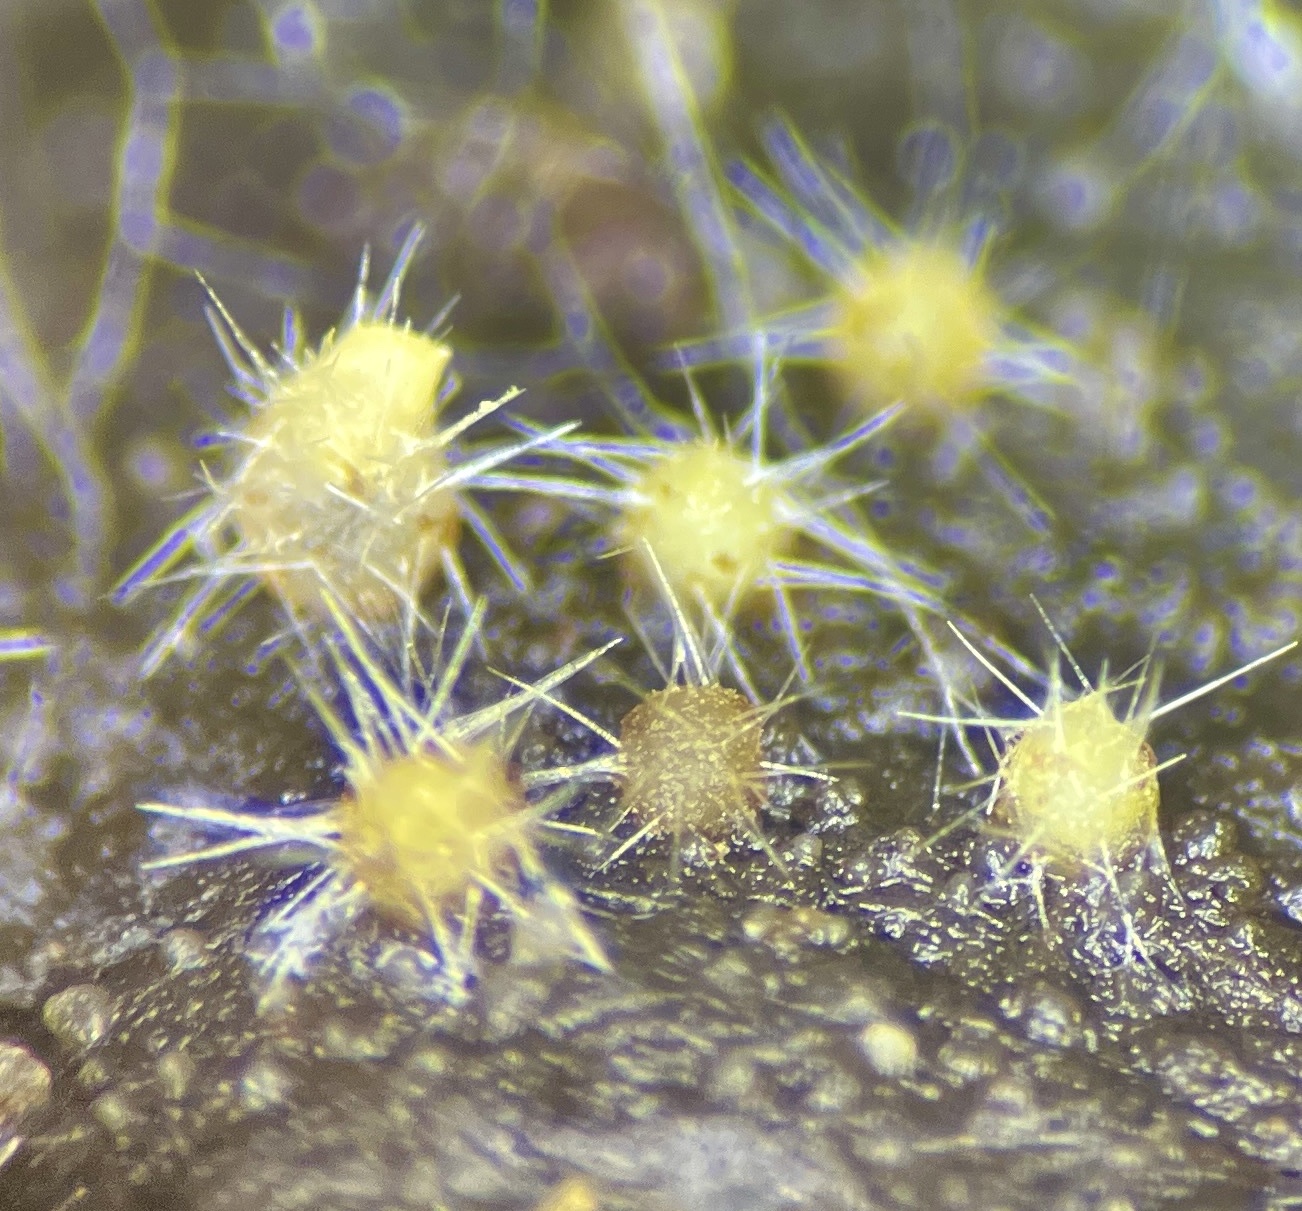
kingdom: Fungi
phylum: Ascomycota
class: Pezizomycetes
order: Pezizales
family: Ascodesmidaceae
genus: Trichobolus
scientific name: Trichobolus zukalii
